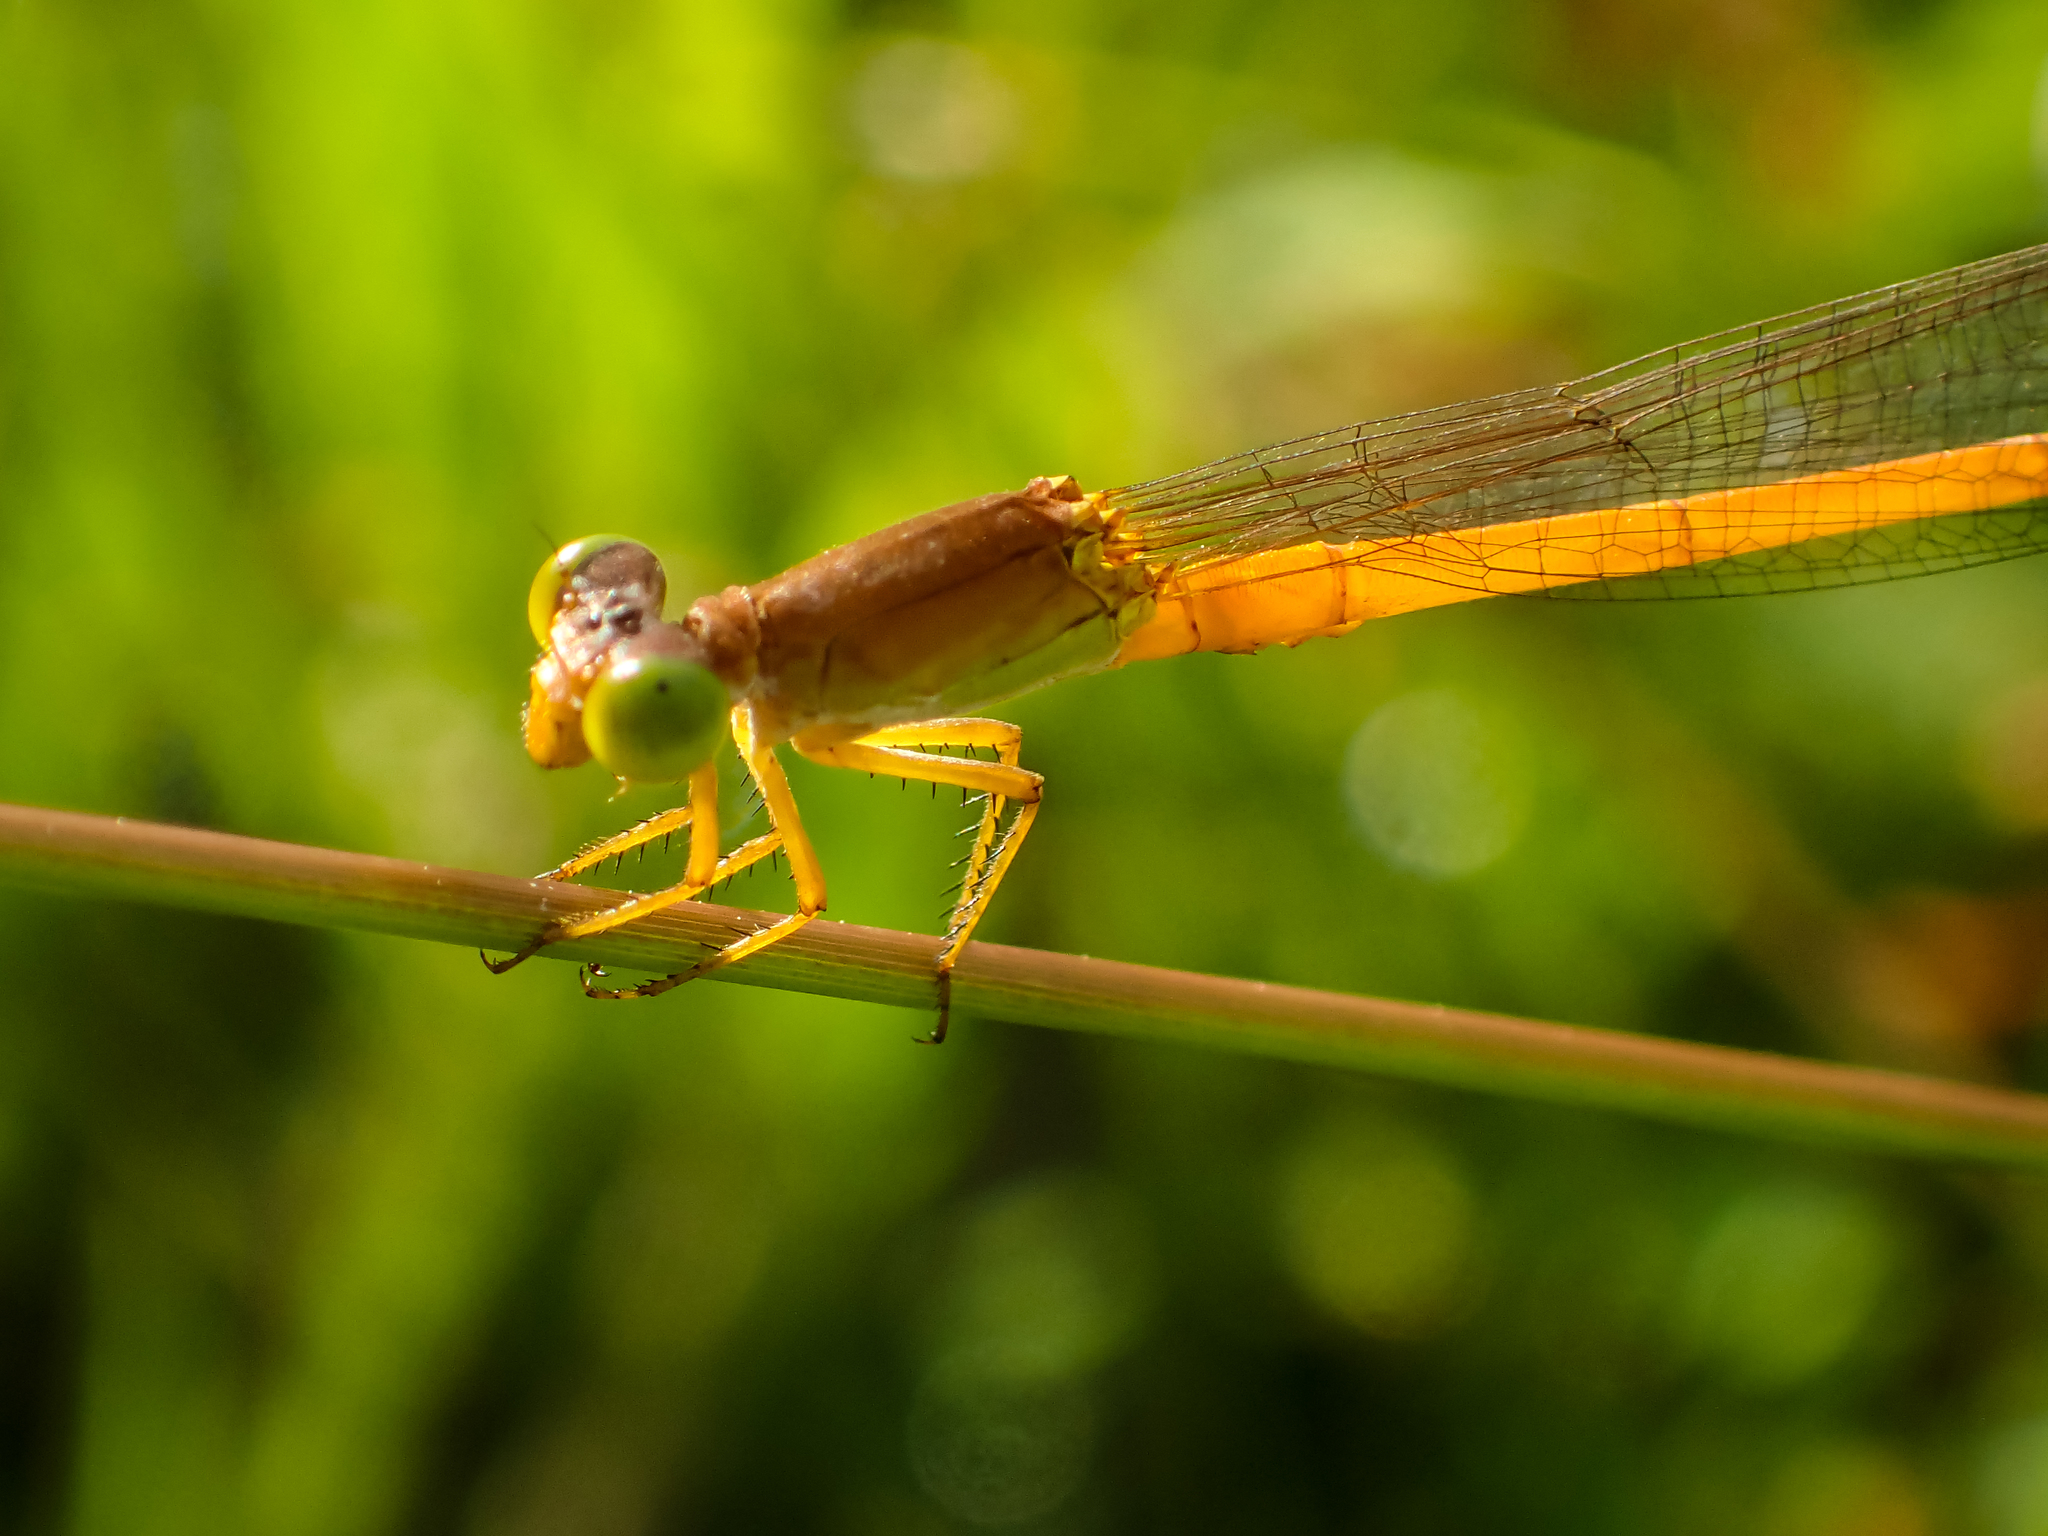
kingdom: Animalia
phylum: Arthropoda
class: Insecta
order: Odonata
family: Coenagrionidae
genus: Ceriagrion
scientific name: Ceriagrion calamineum
